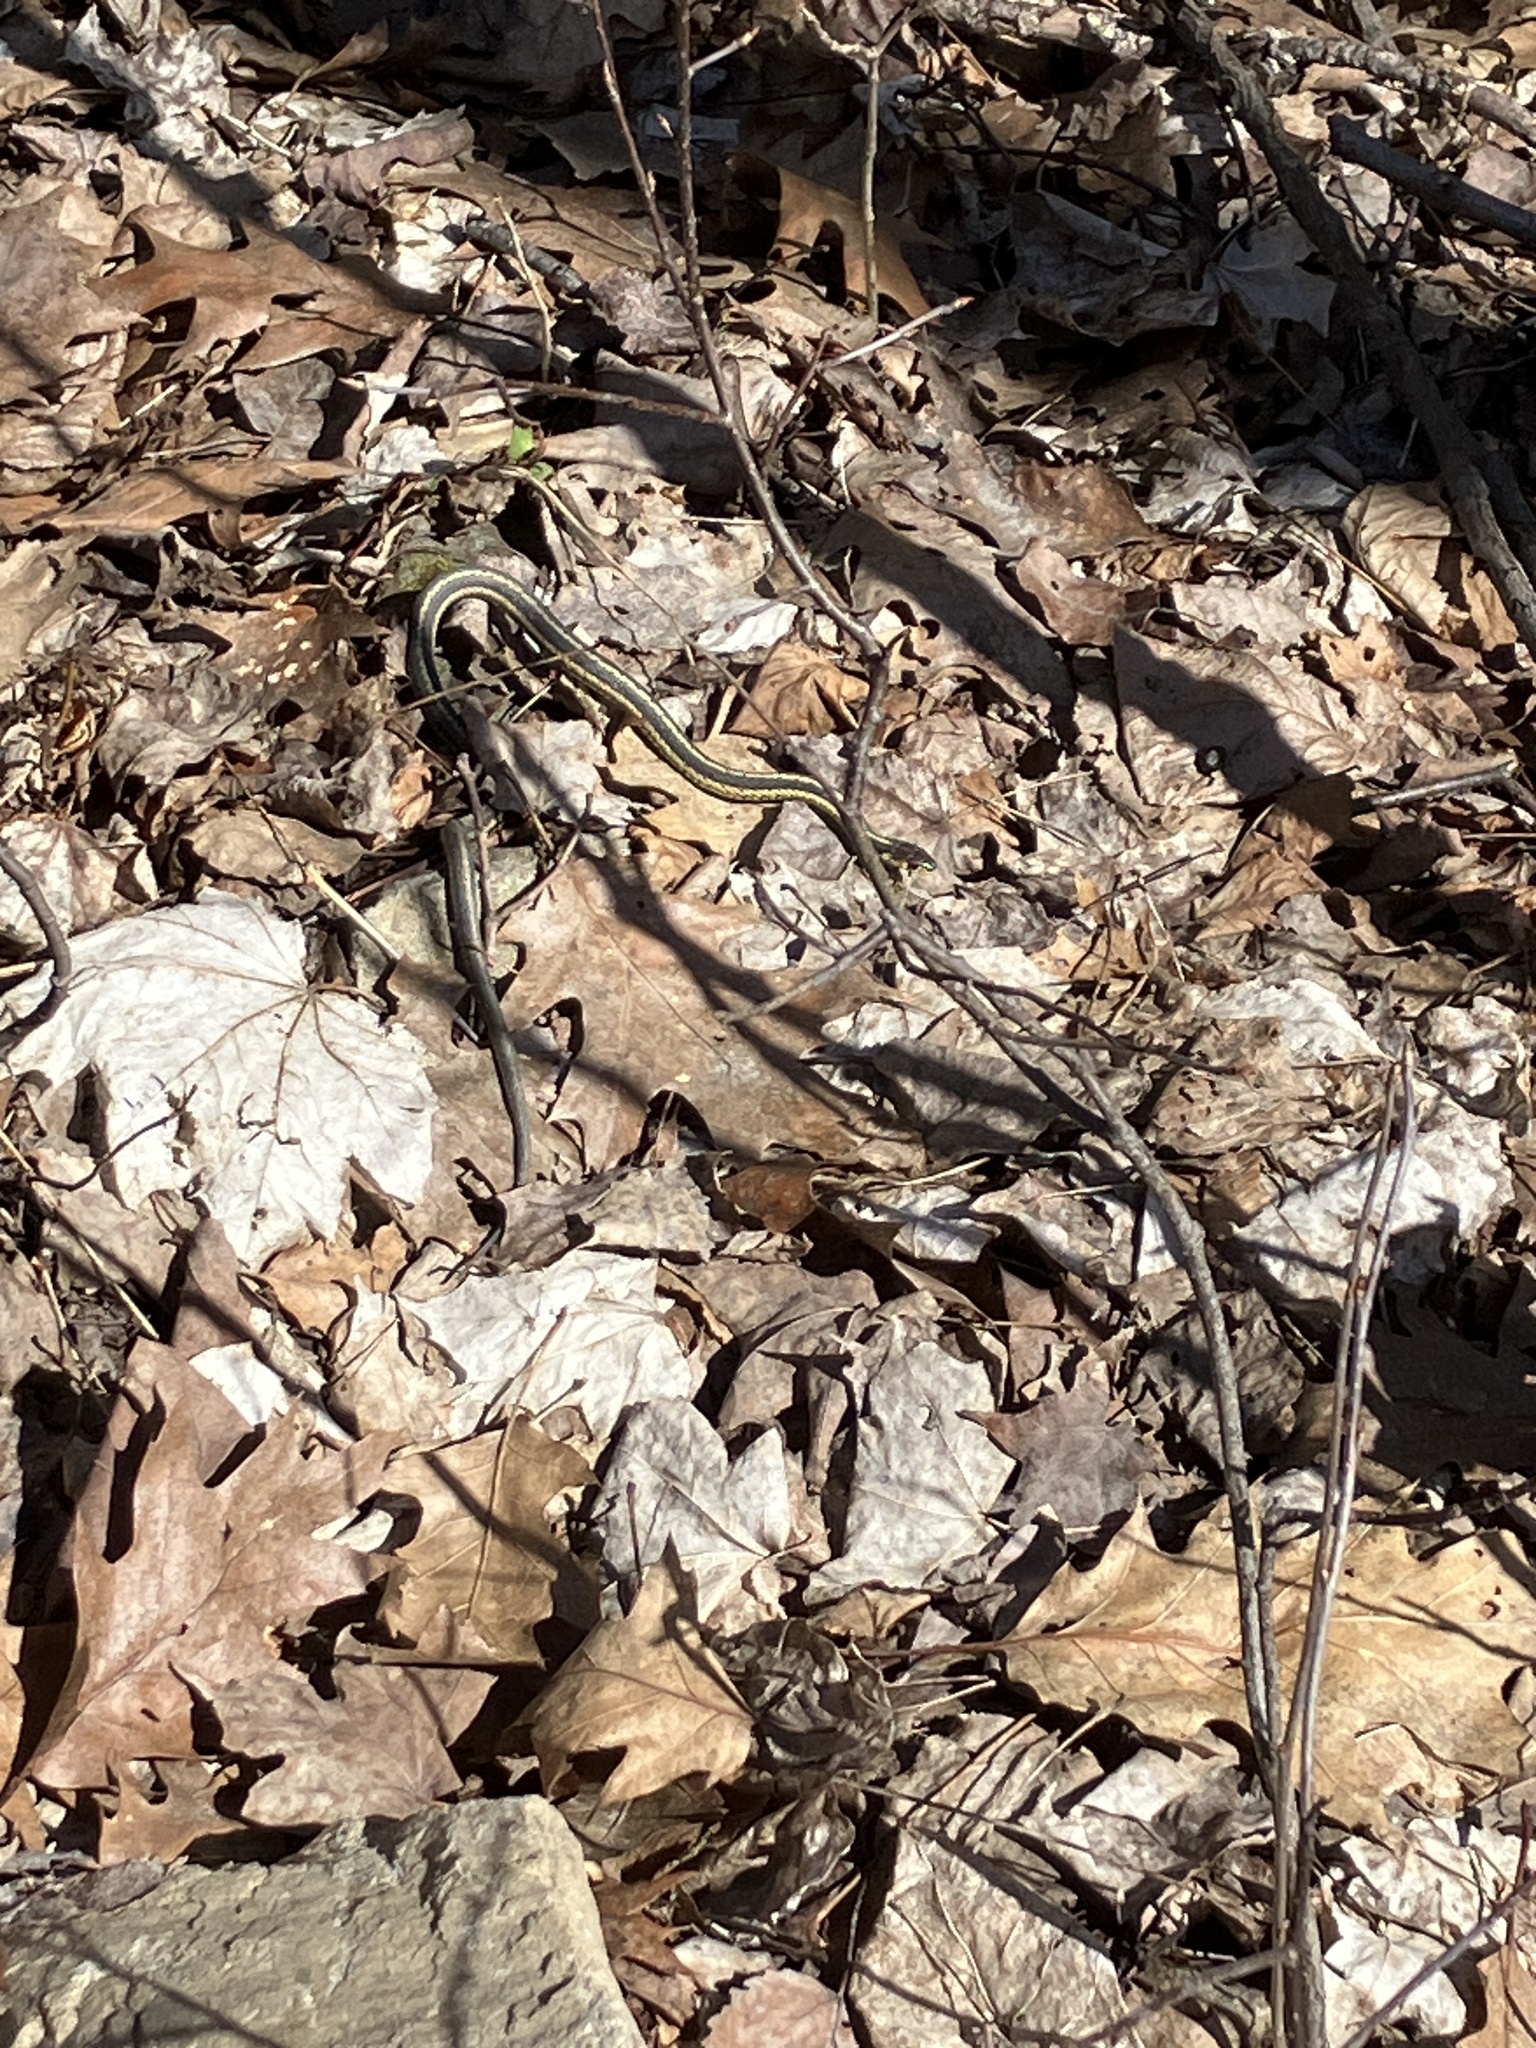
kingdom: Animalia
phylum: Chordata
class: Squamata
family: Colubridae
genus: Thamnophis
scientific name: Thamnophis sirtalis
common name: Common garter snake
